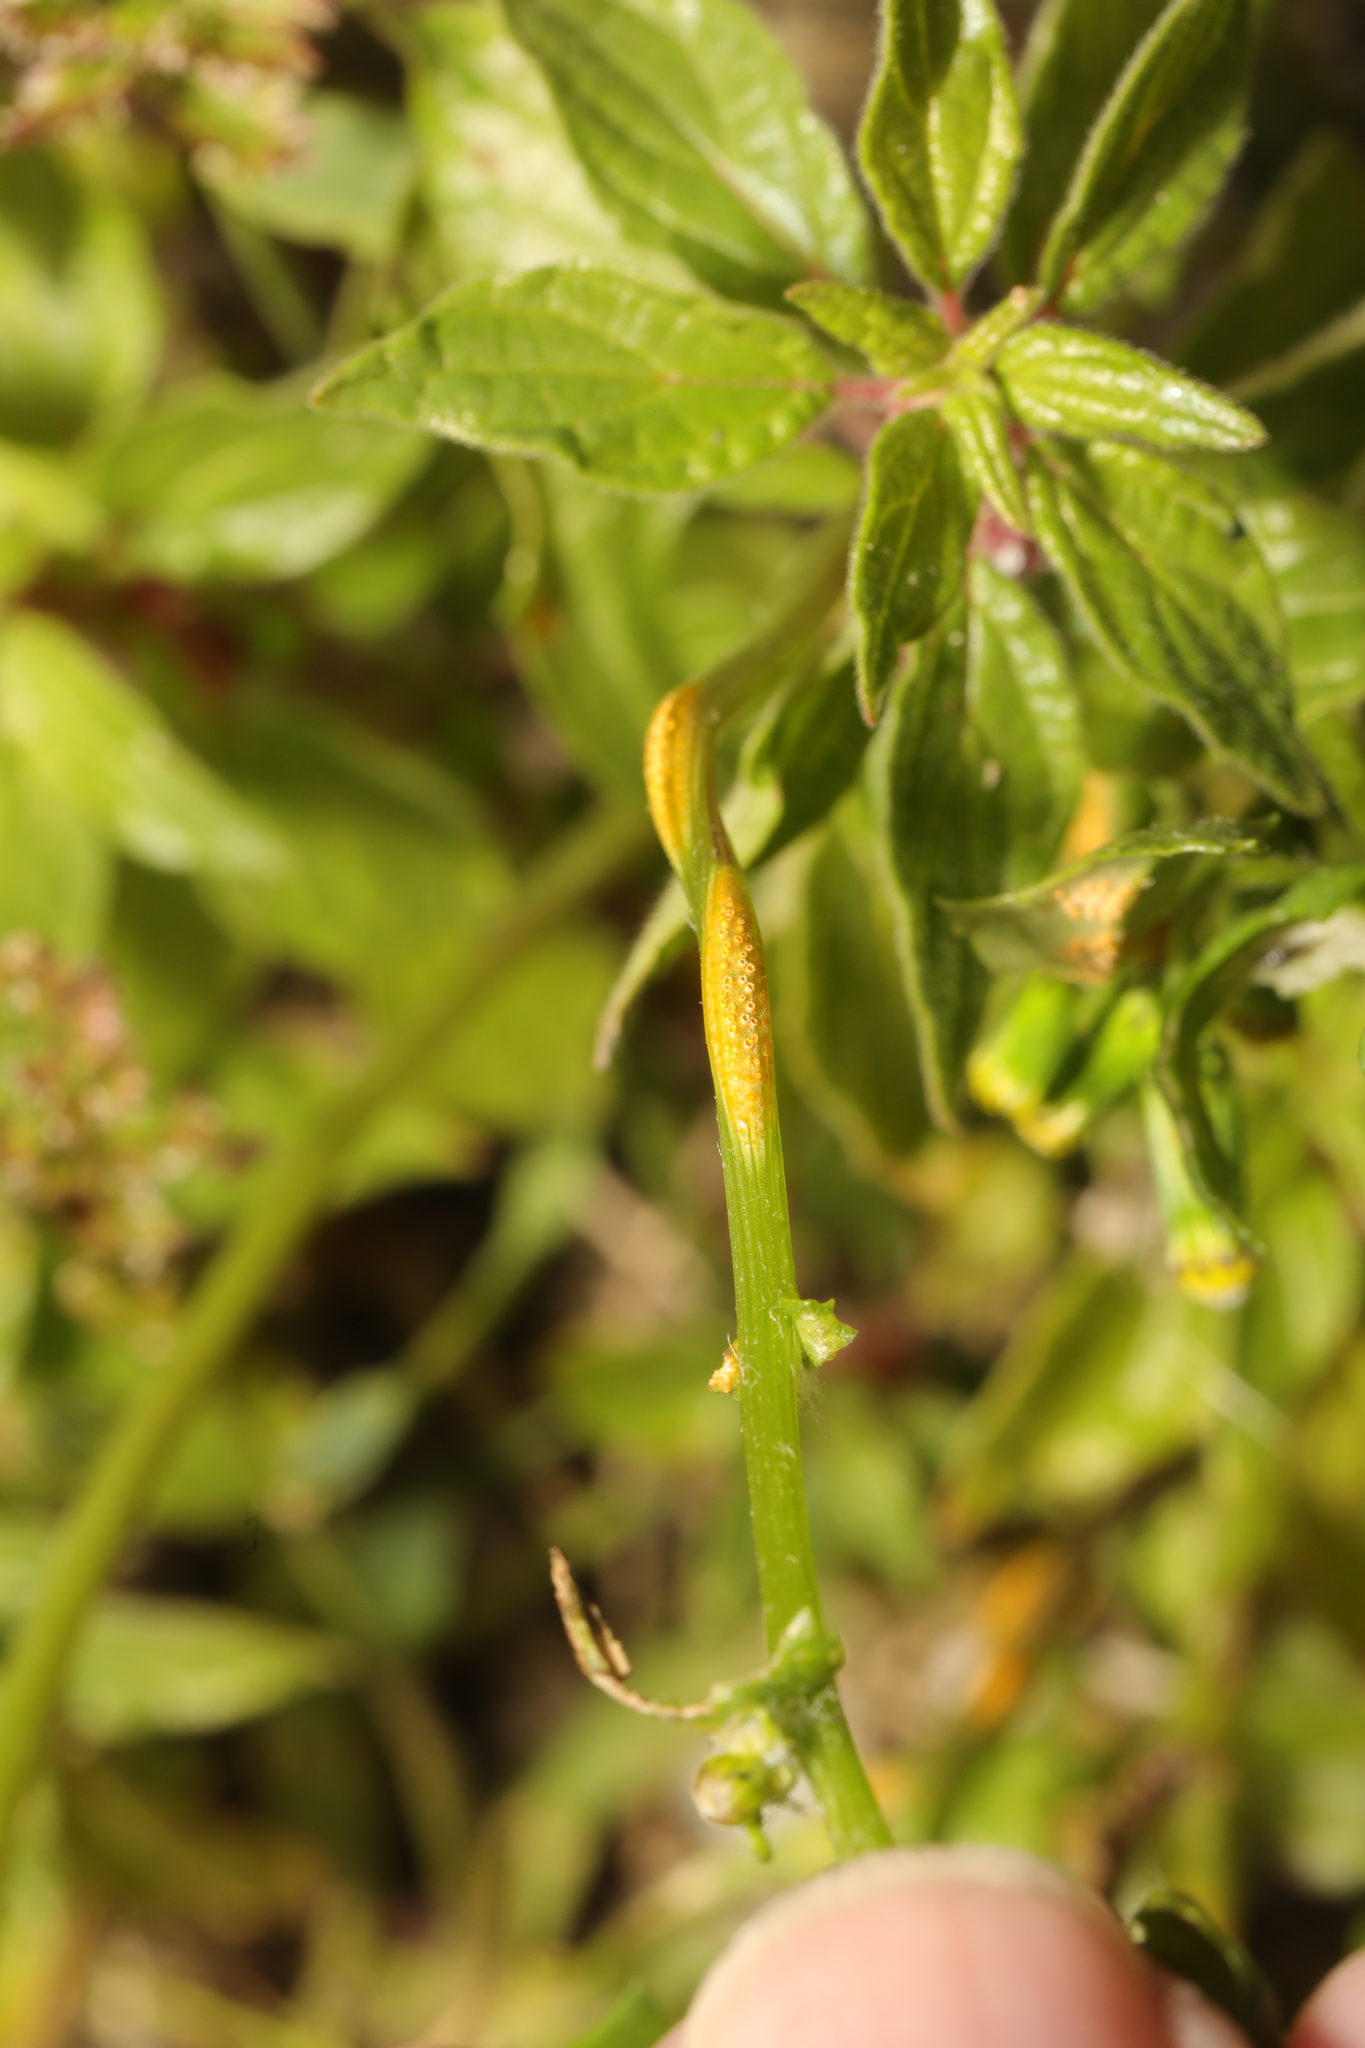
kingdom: Fungi
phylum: Basidiomycota
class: Pucciniomycetes
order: Pucciniales
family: Pucciniaceae
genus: Puccinia
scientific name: Puccinia lagenophorae
